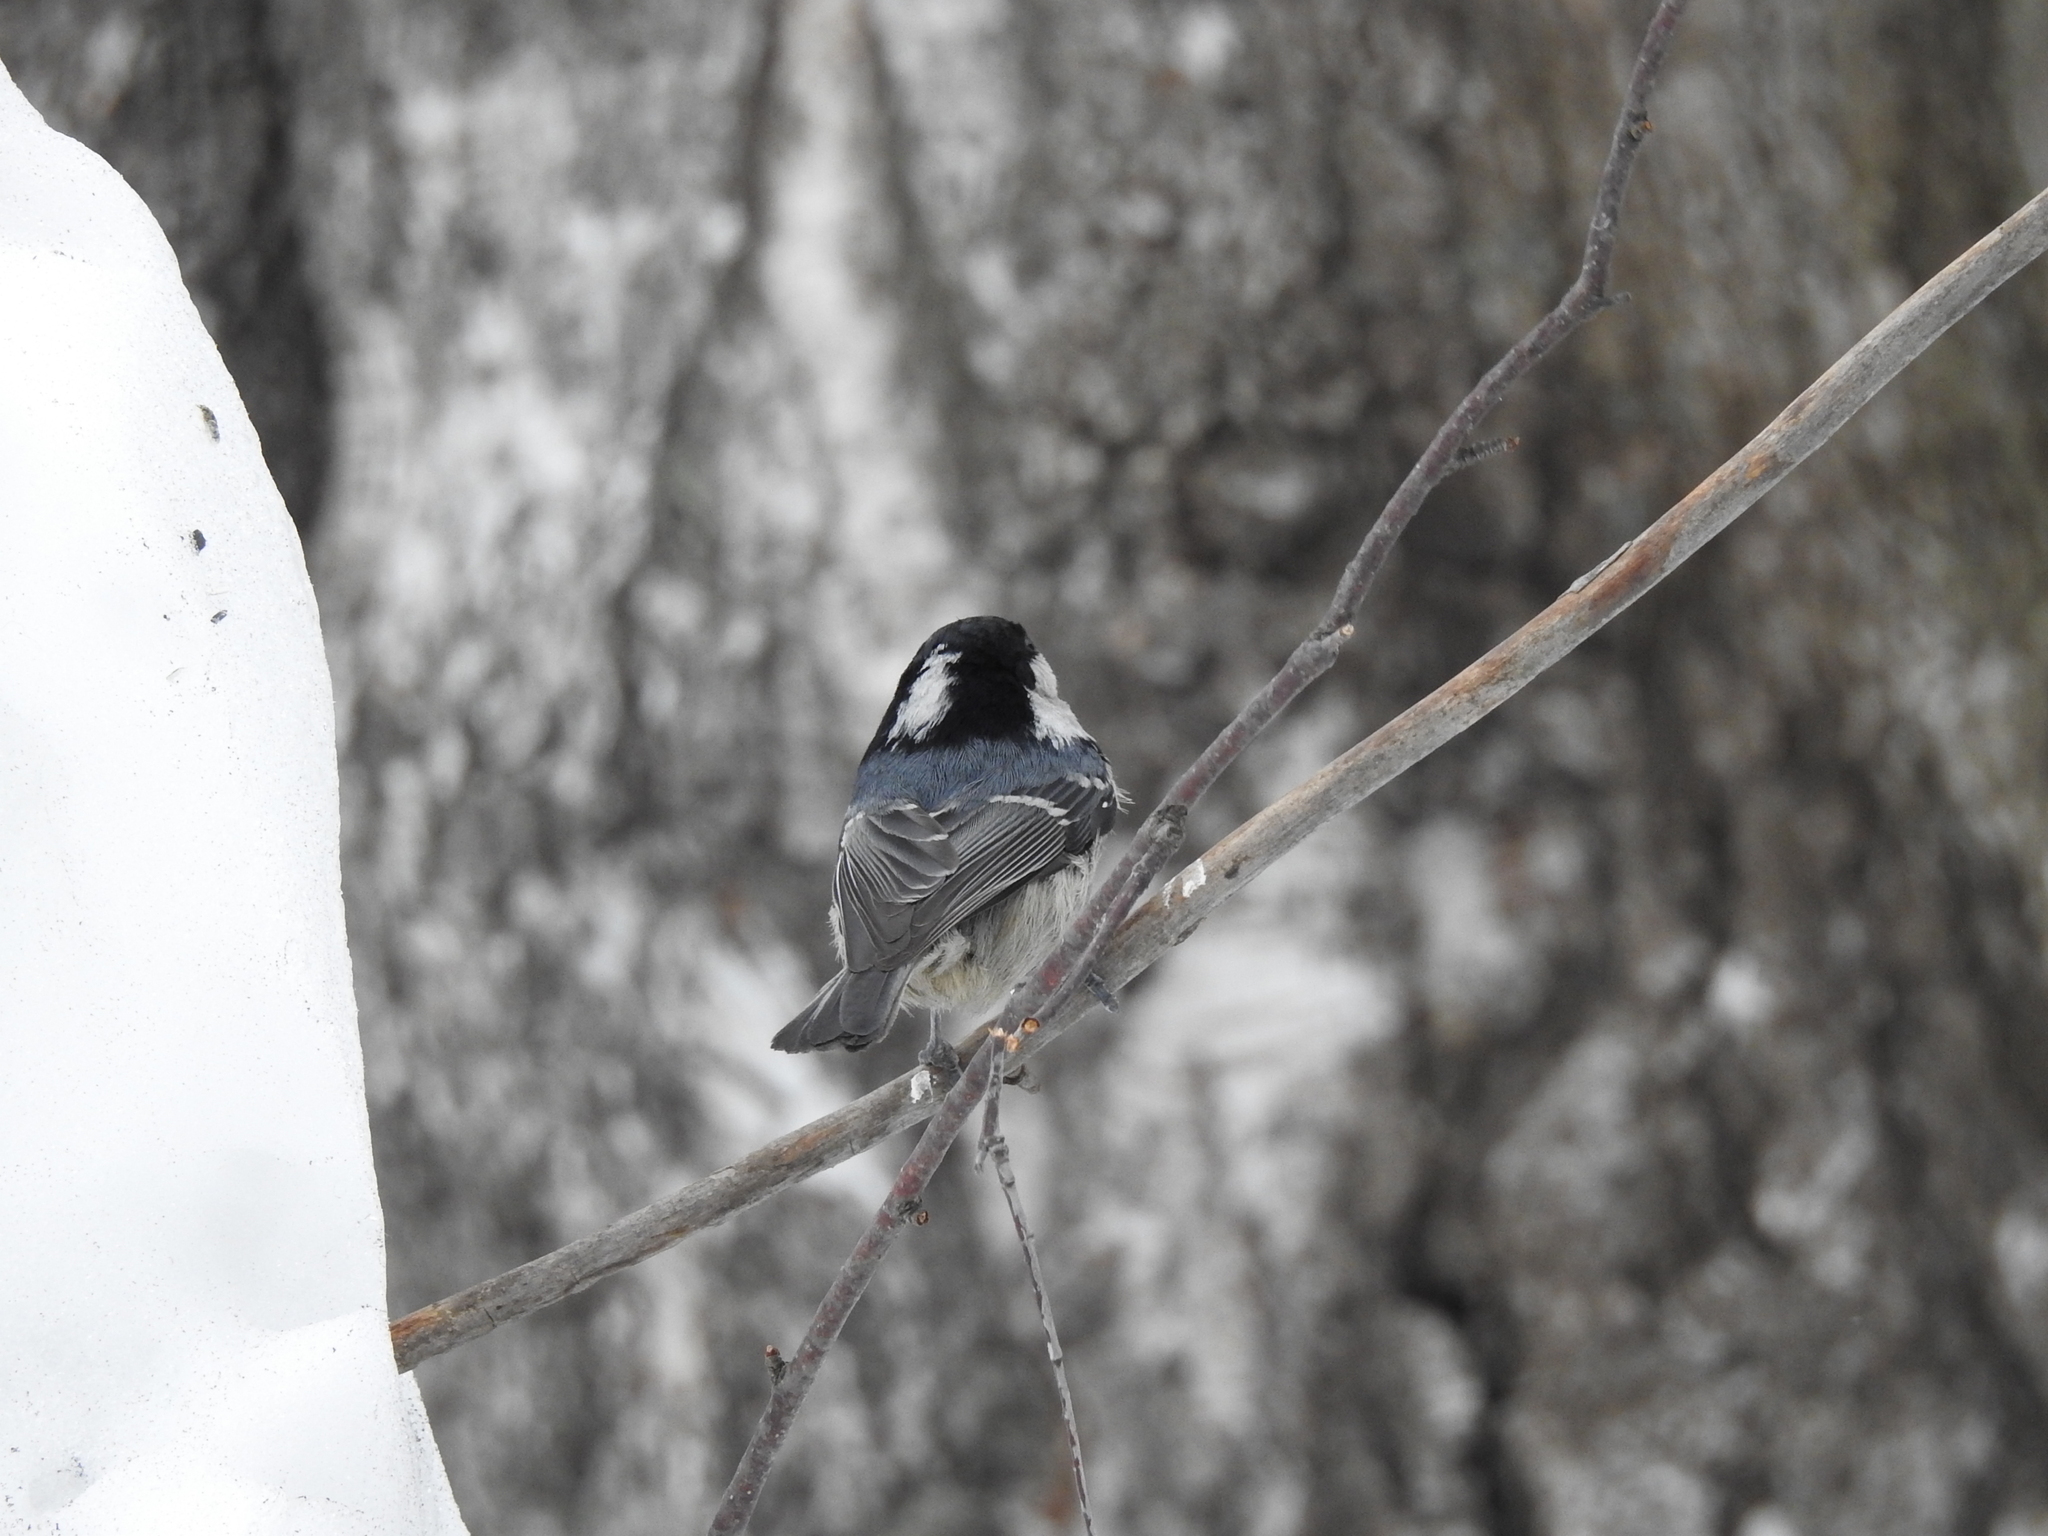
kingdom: Animalia
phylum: Chordata
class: Aves
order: Passeriformes
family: Paridae
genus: Periparus
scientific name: Periparus ater
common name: Coal tit
